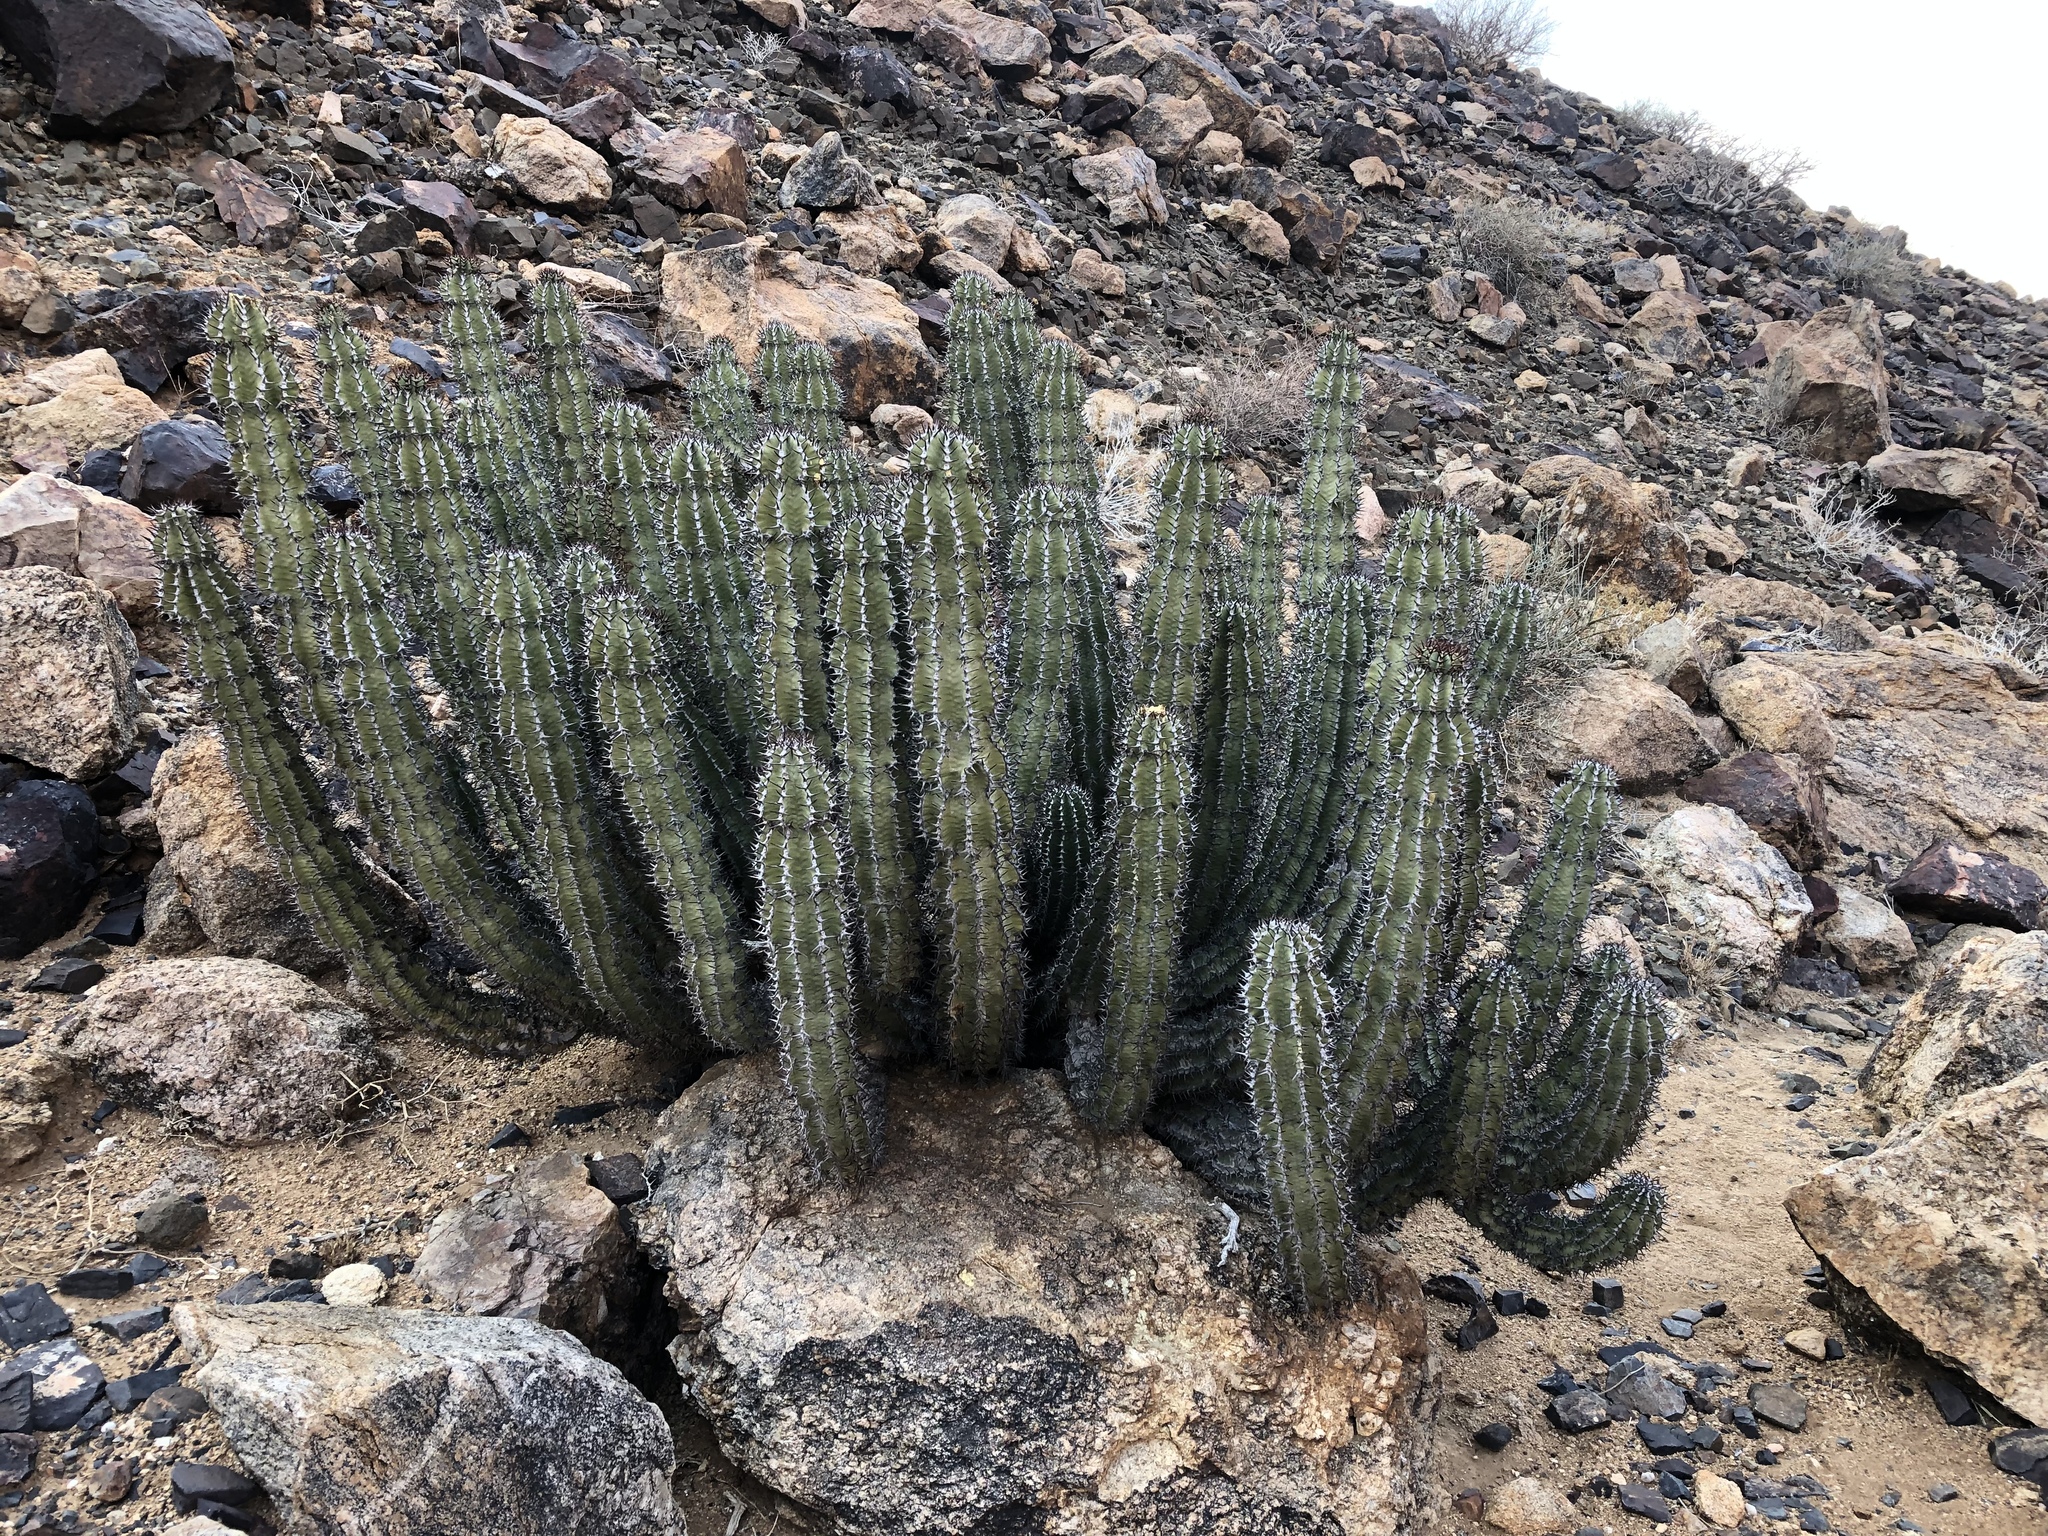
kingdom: Plantae
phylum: Tracheophyta
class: Magnoliopsida
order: Malpighiales
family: Euphorbiaceae
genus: Euphorbia
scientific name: Euphorbia virosa
